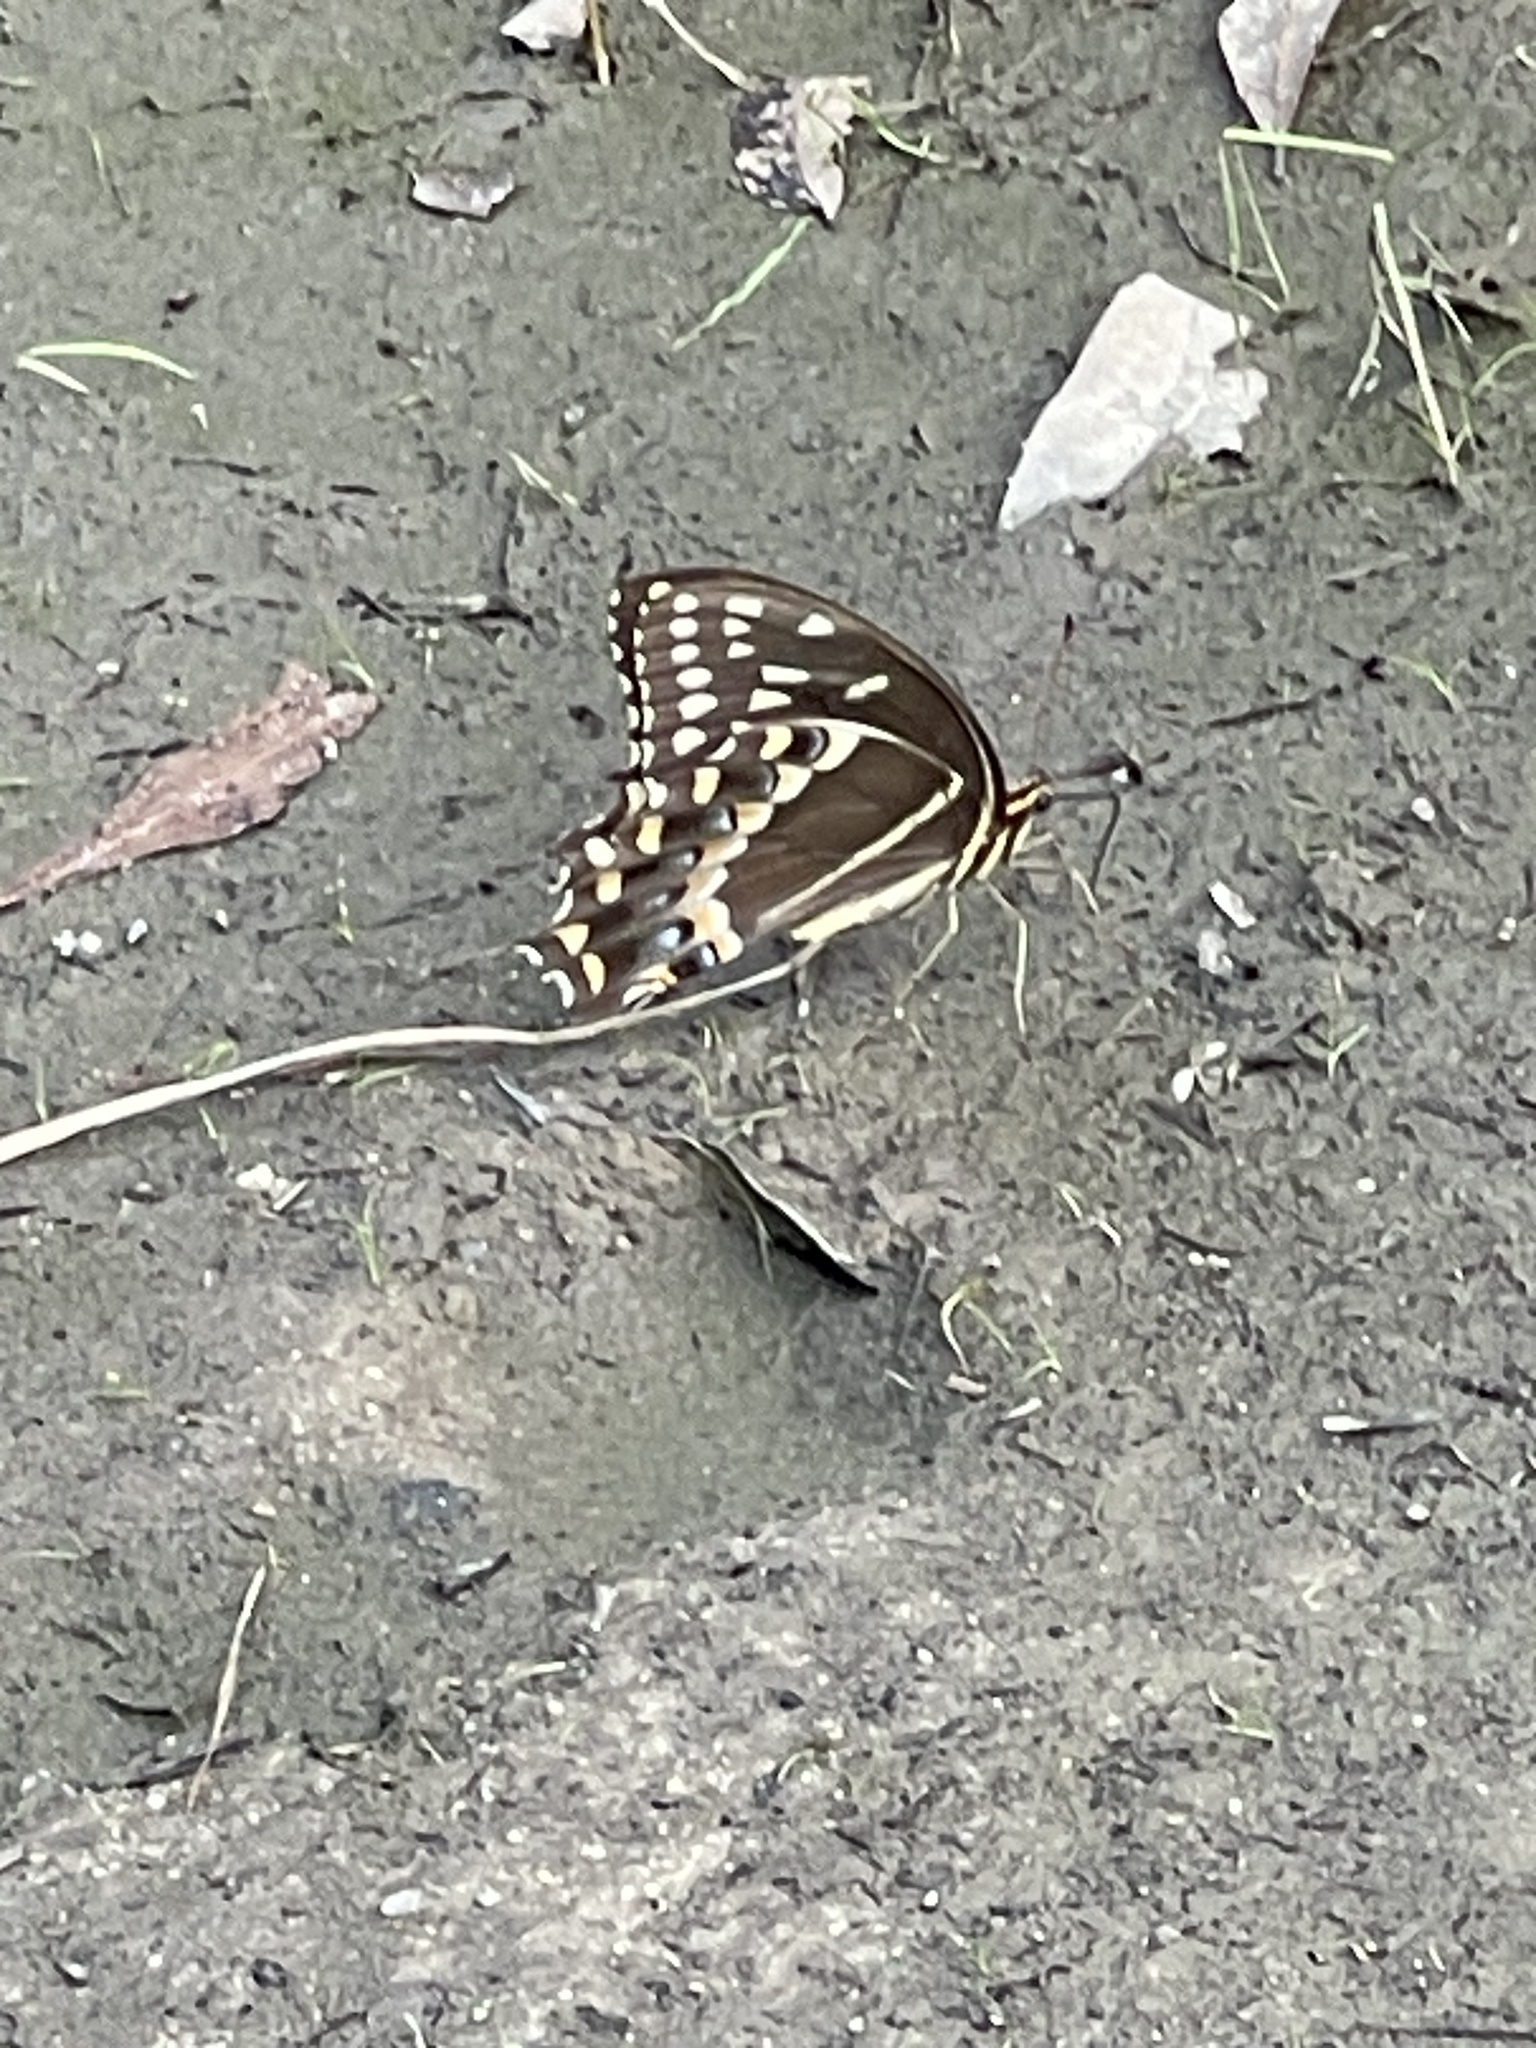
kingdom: Animalia
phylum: Arthropoda
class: Insecta
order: Lepidoptera
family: Papilionidae
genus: Papilio
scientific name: Papilio palamedes
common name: Palamedes swallowtail
